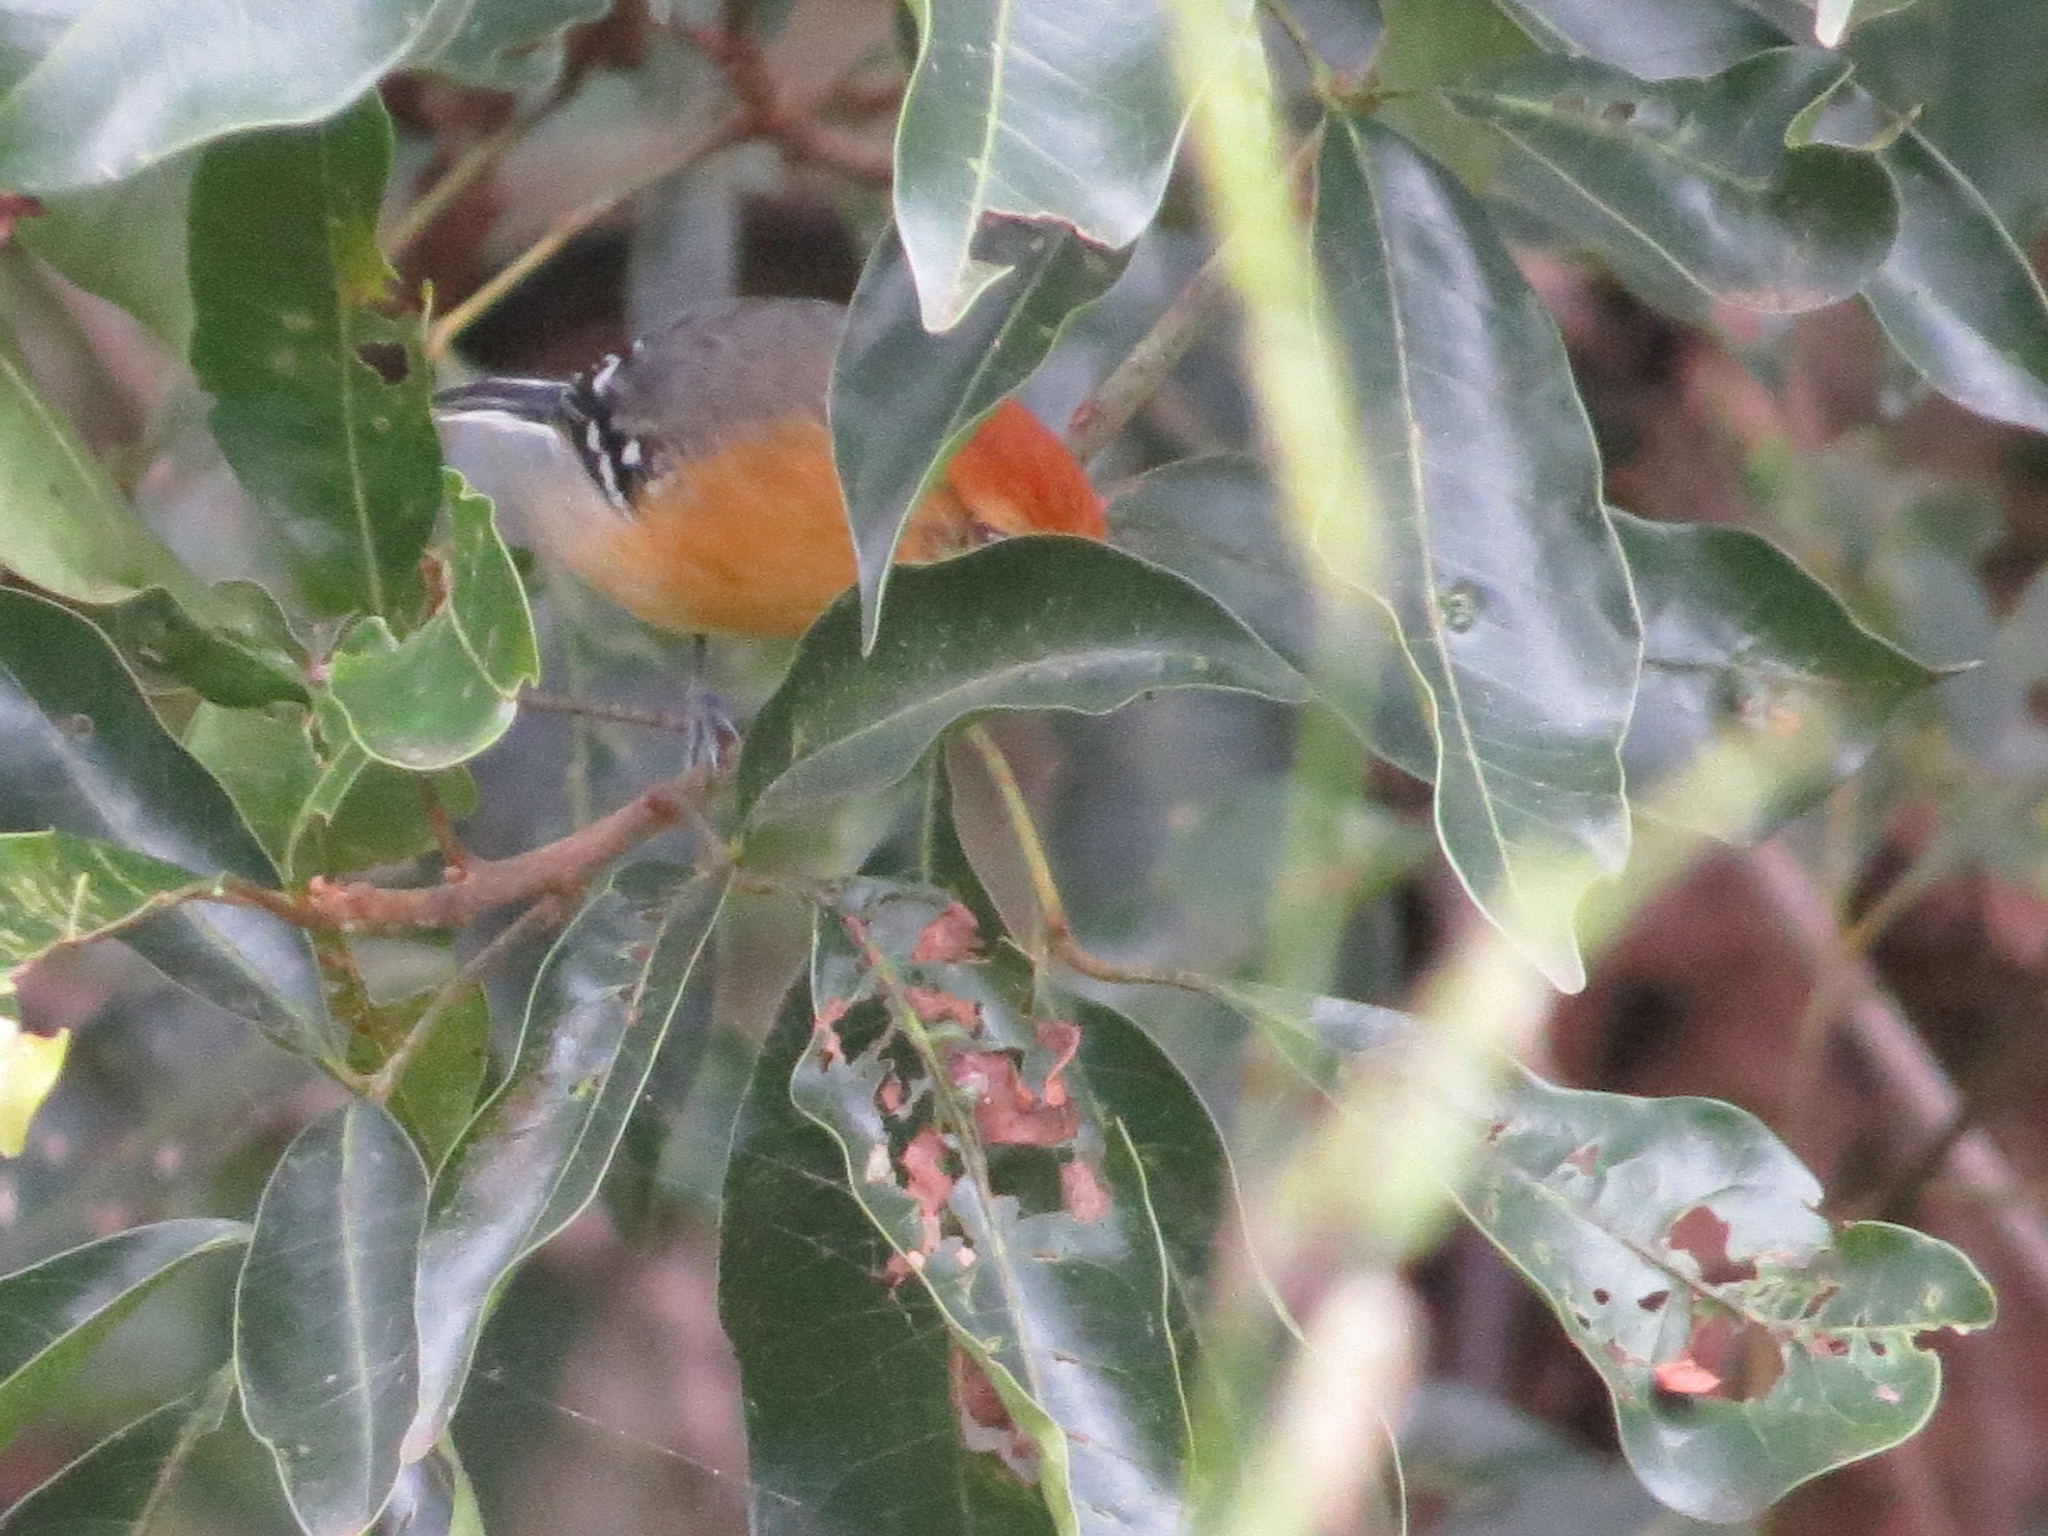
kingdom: Animalia
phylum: Chordata
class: Aves
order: Passeriformes
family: Thamnophilidae
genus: Herpsilochmus
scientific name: Herpsilochmus longirostris
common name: Large-billed antwren
